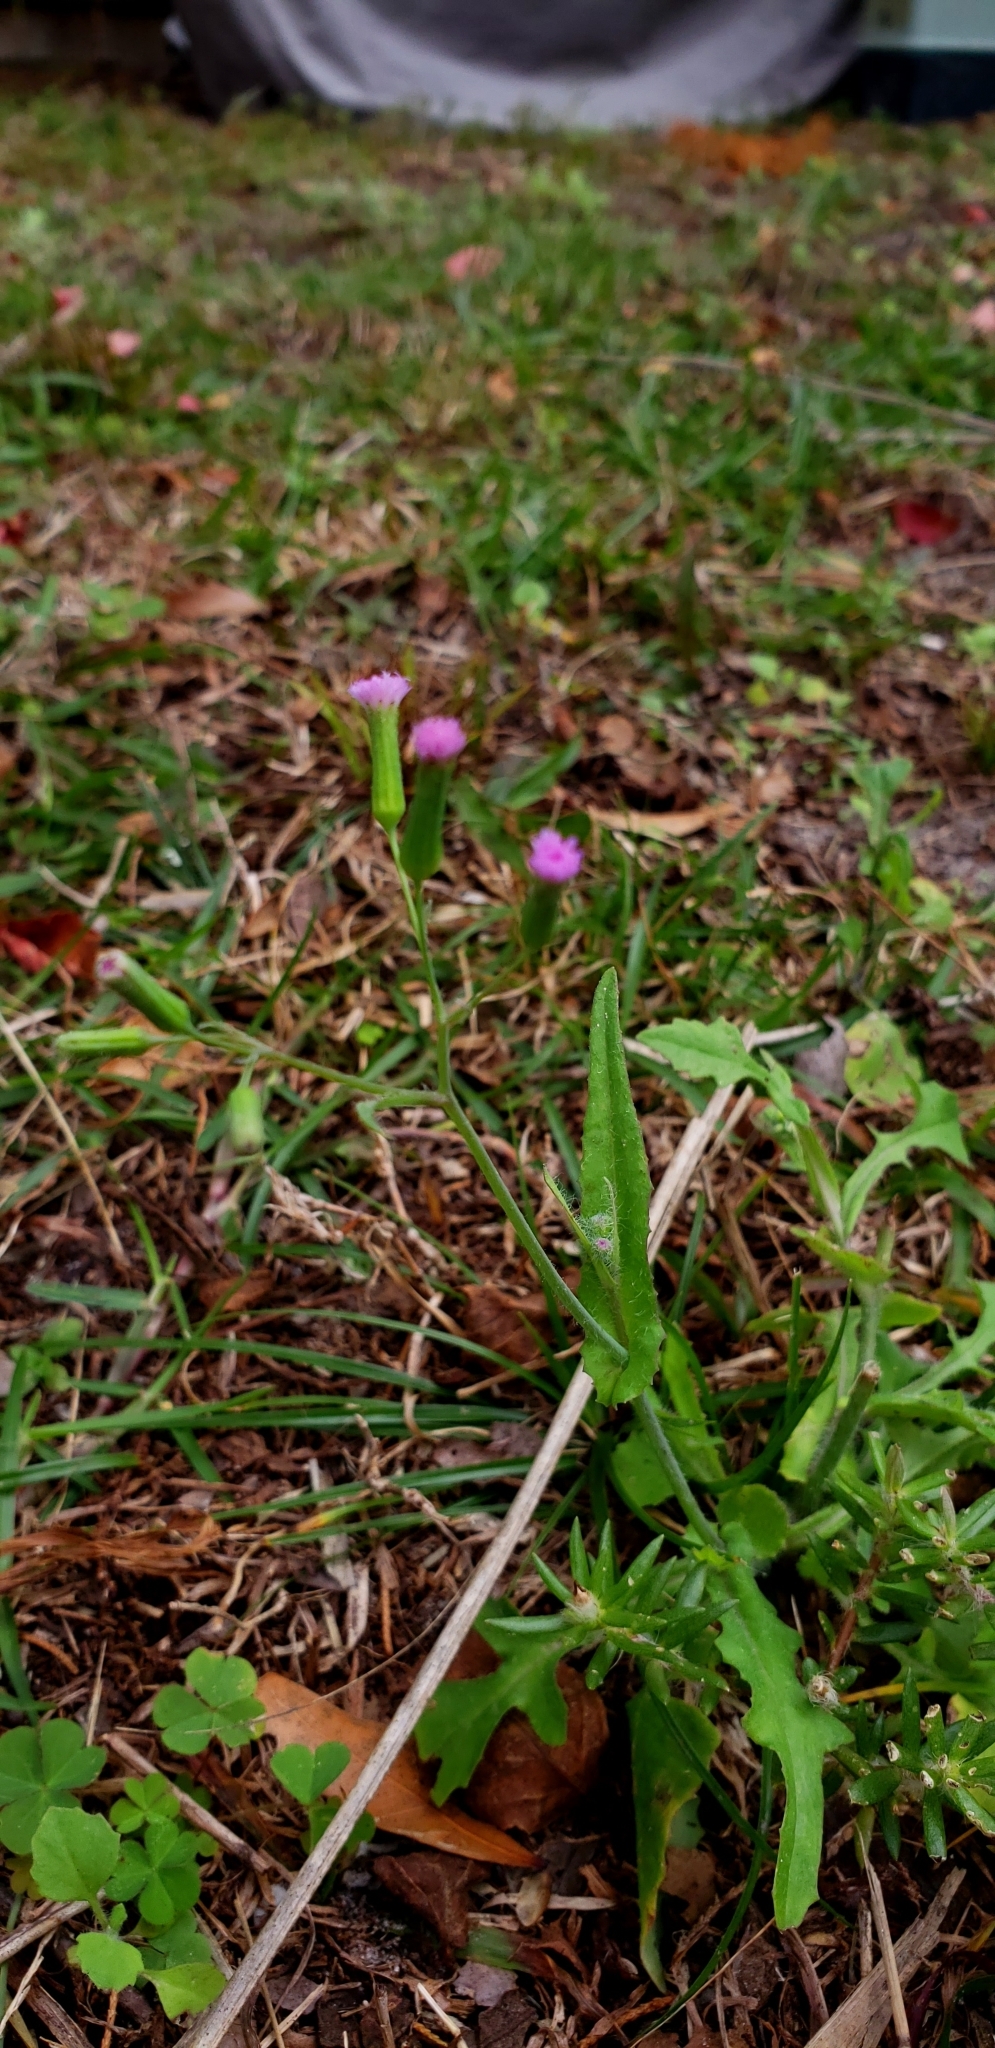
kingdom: Plantae
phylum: Tracheophyta
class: Magnoliopsida
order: Asterales
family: Asteraceae
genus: Emilia
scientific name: Emilia sonchifolia
